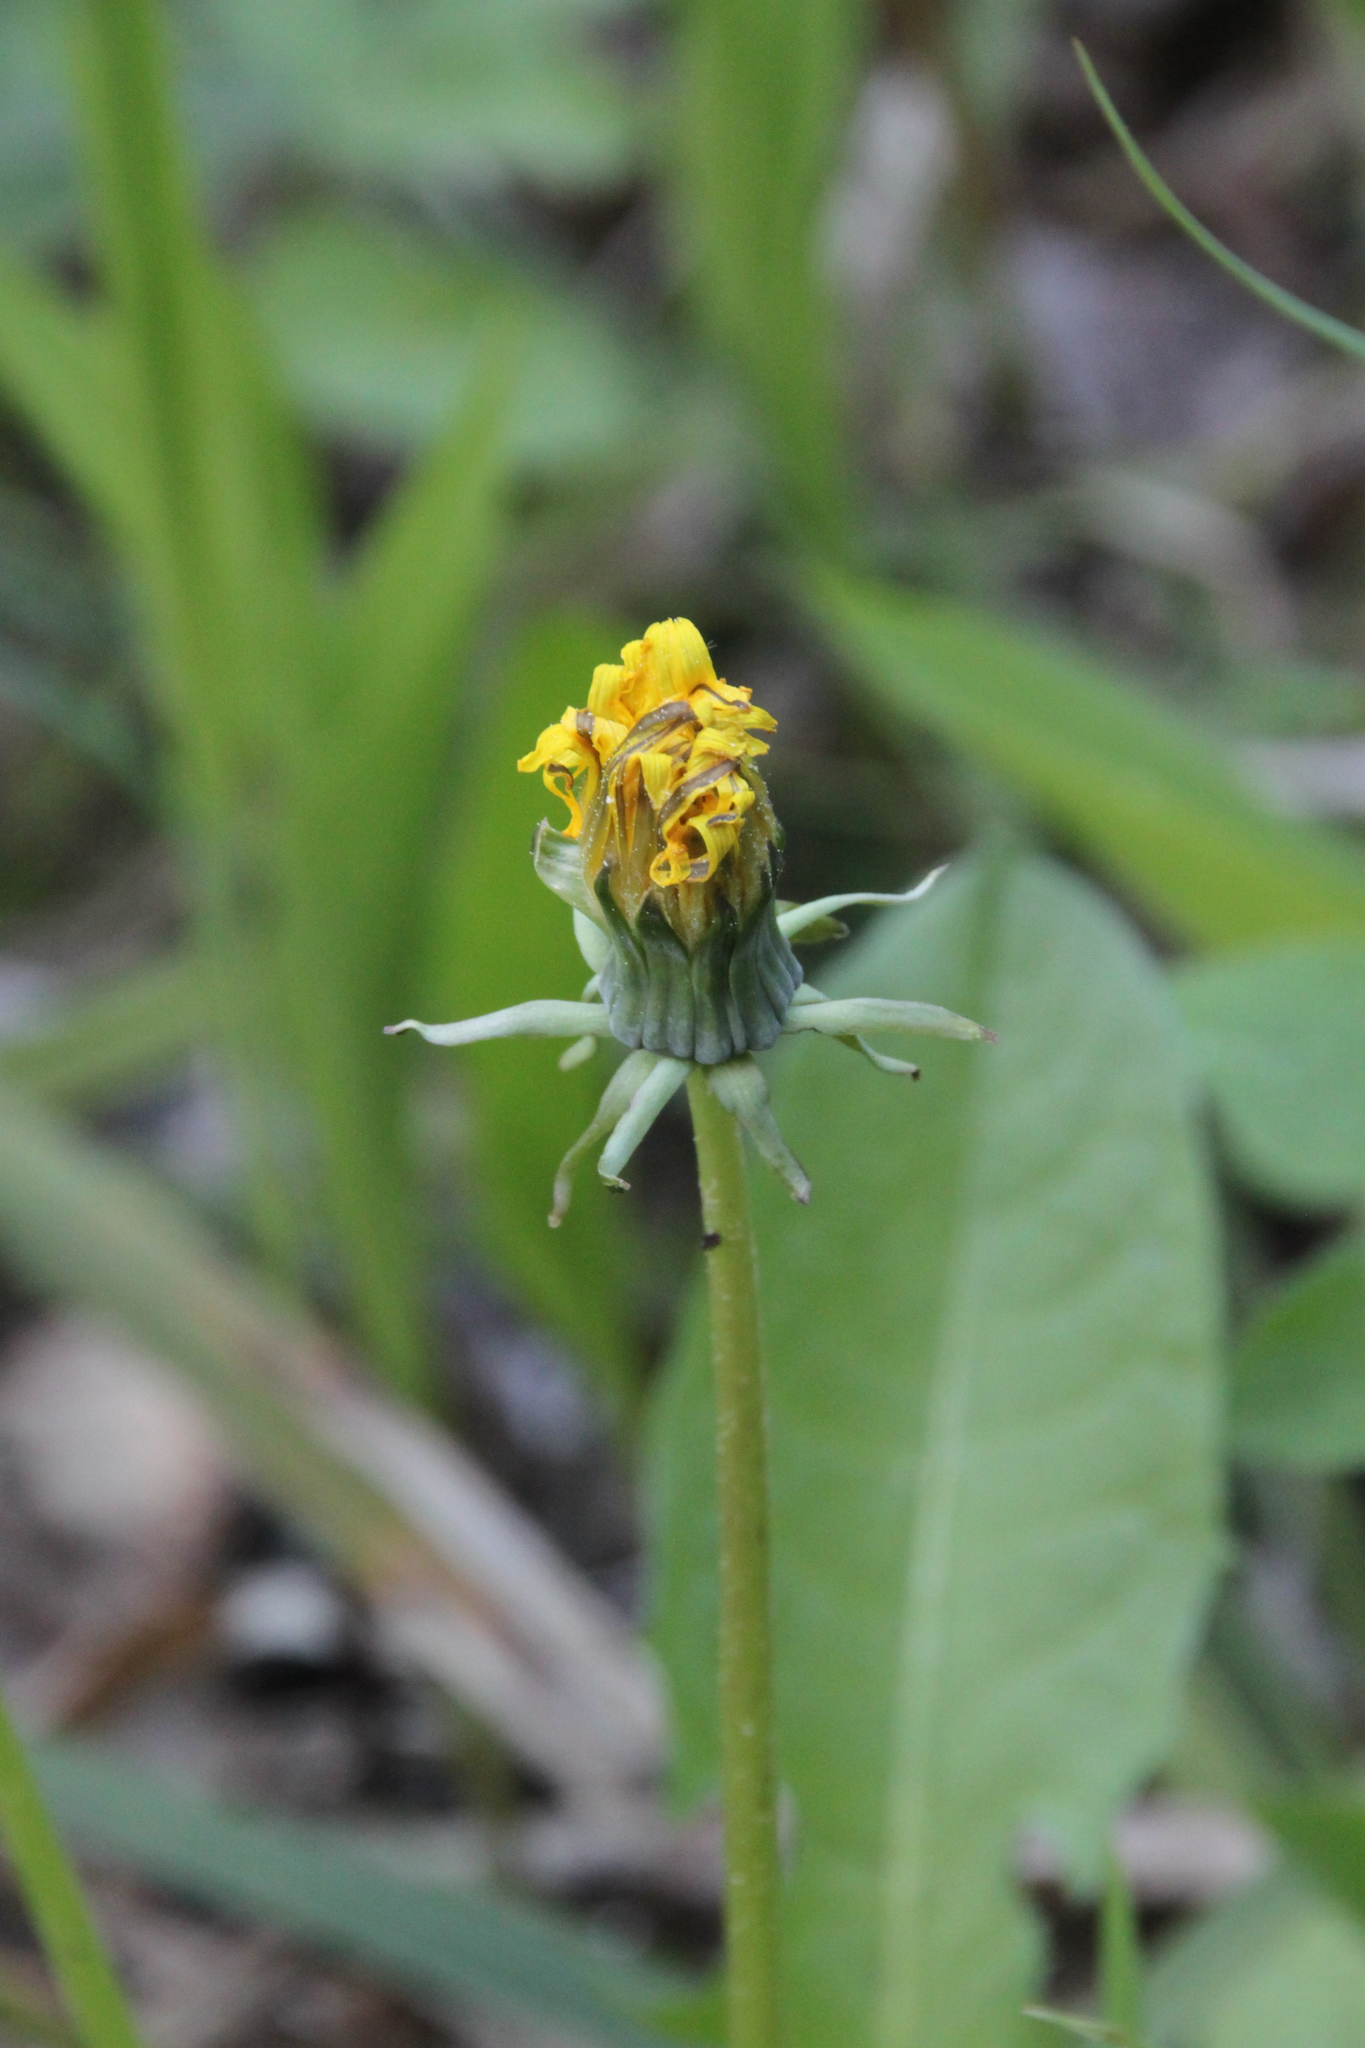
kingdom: Plantae
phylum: Tracheophyta
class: Magnoliopsida
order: Asterales
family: Asteraceae
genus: Taraxacum
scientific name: Taraxacum officinale
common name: Common dandelion
